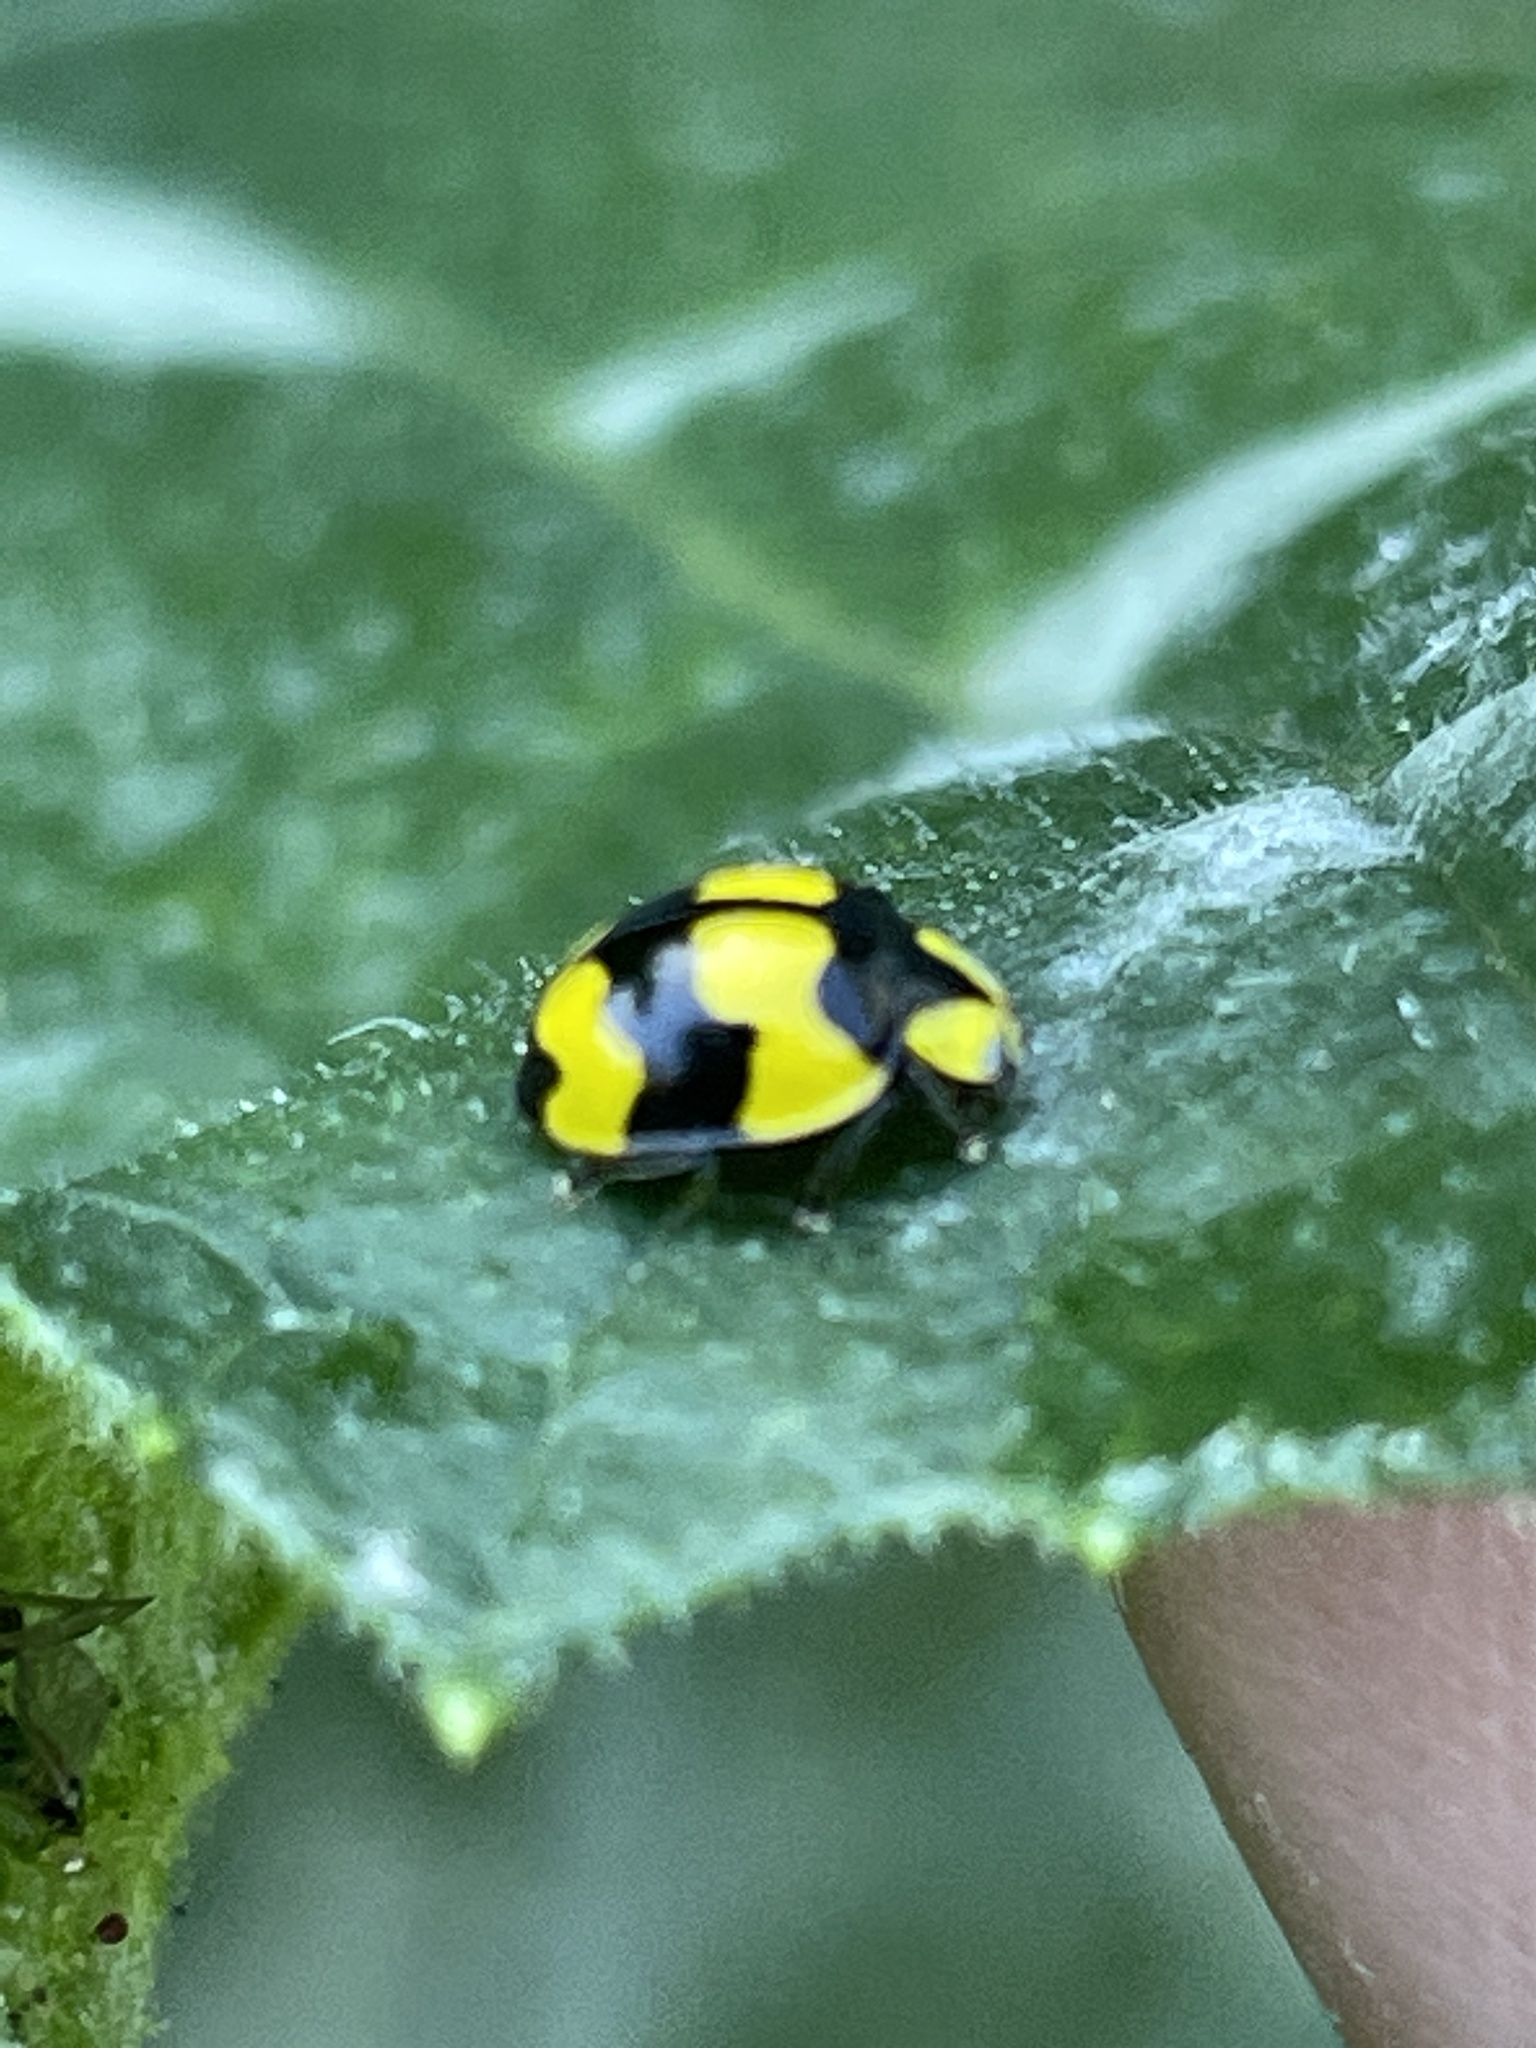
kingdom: Animalia
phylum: Arthropoda
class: Insecta
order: Coleoptera
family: Coccinellidae
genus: Illeis
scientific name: Illeis galbula
